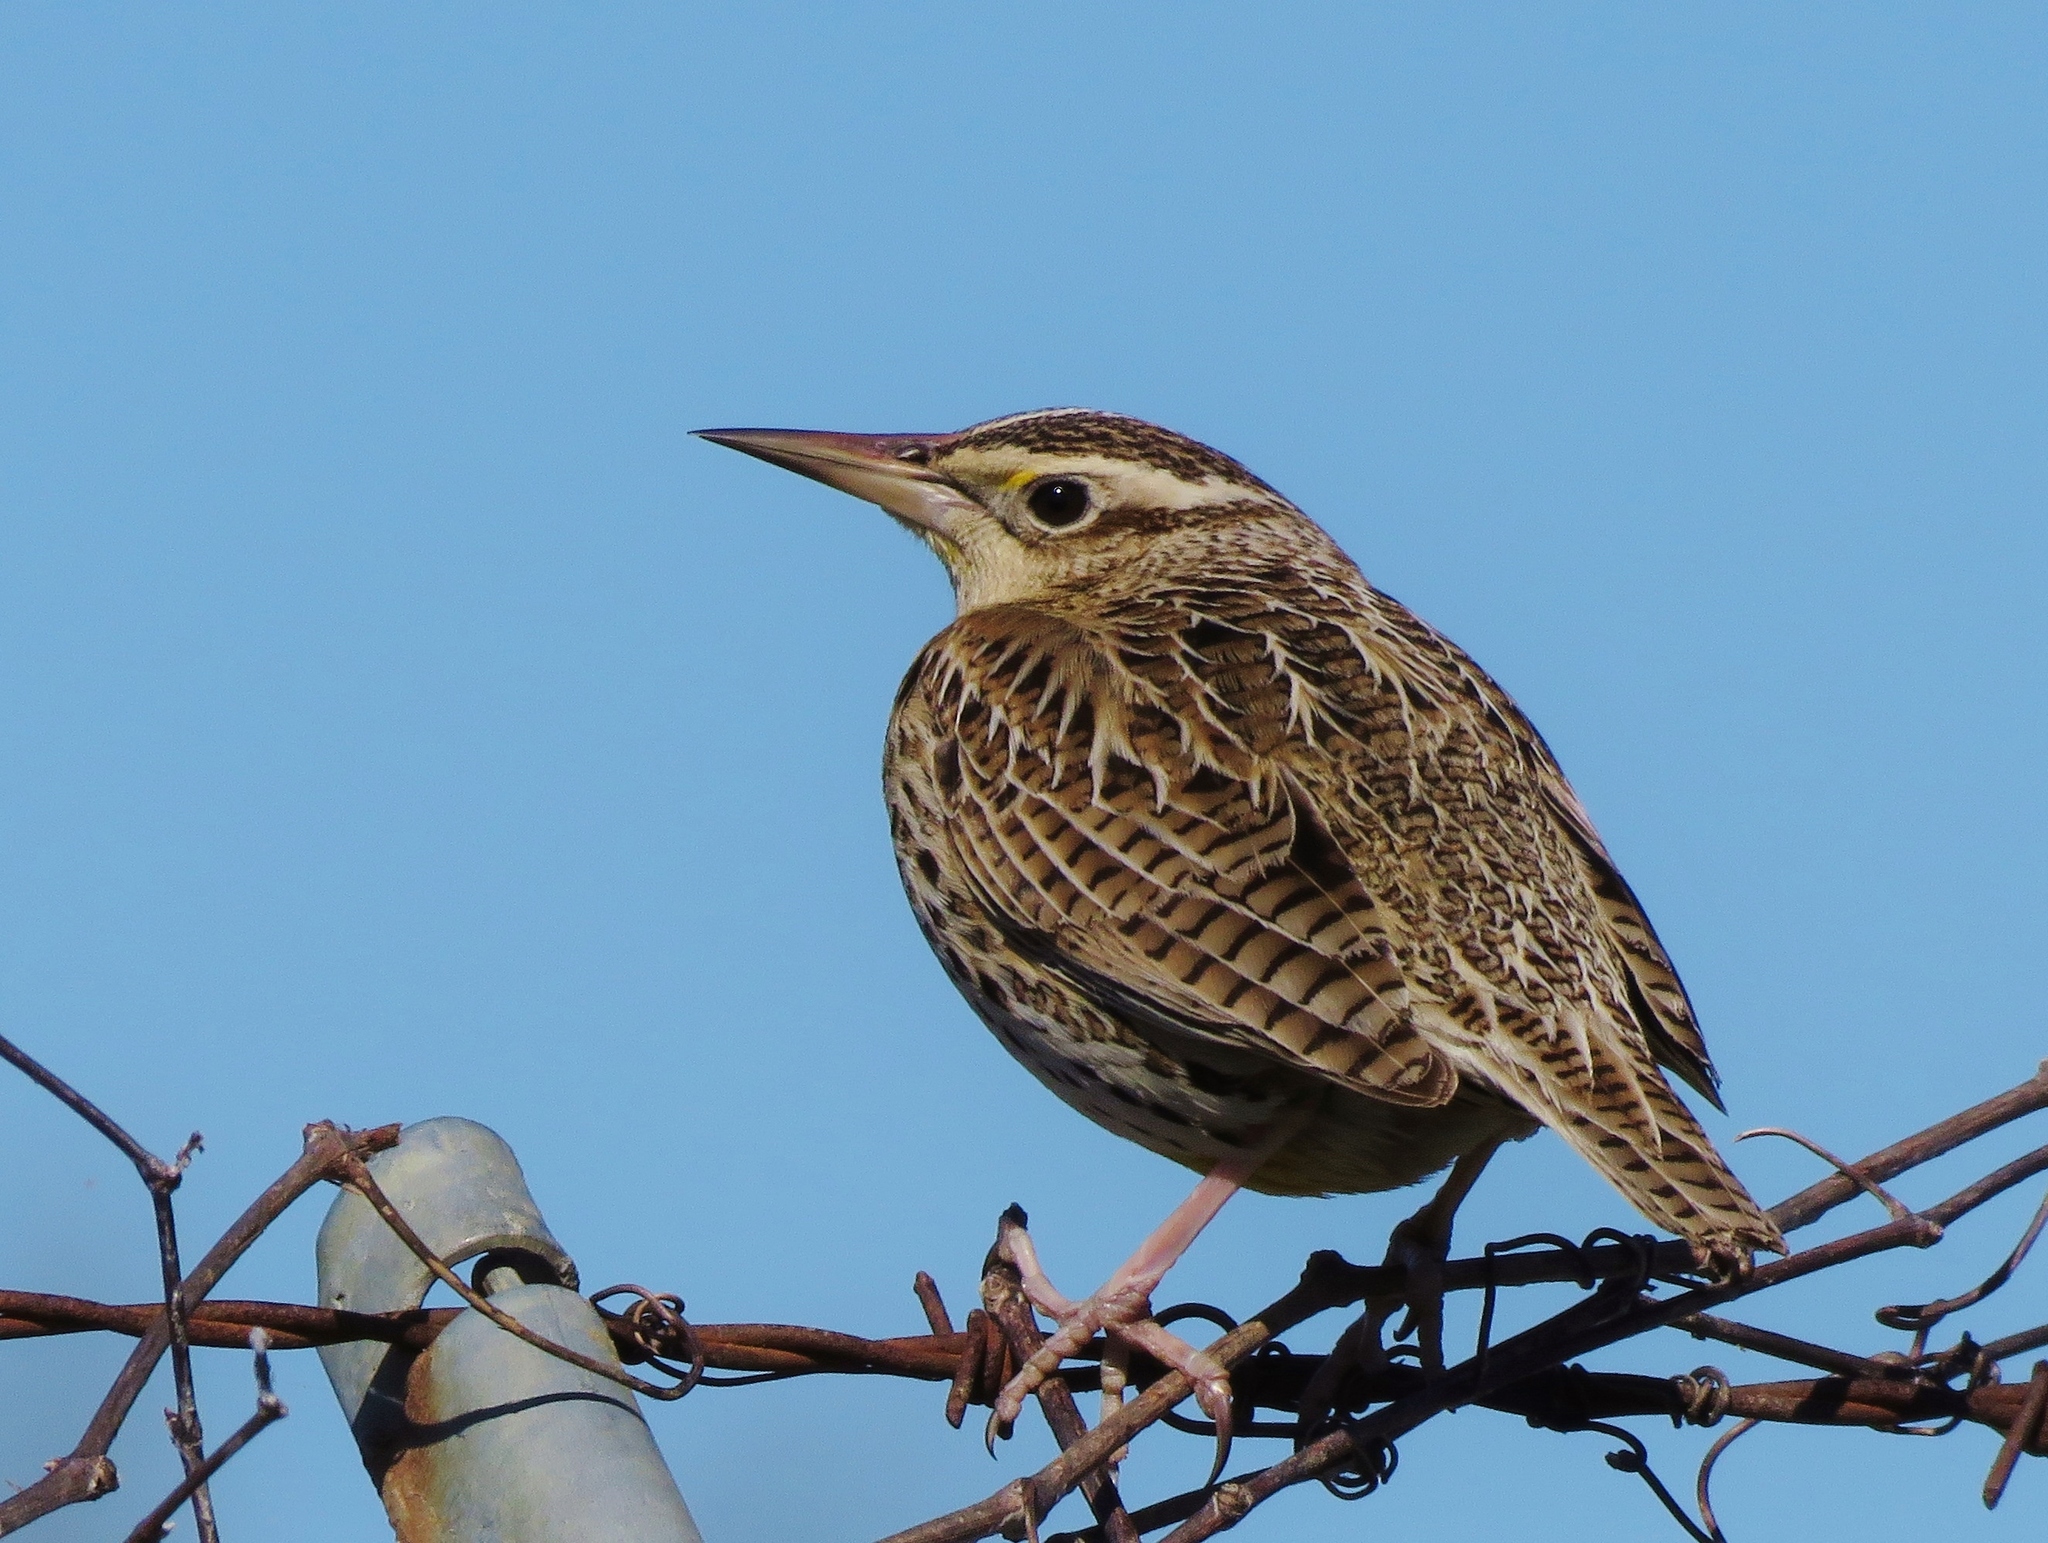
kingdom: Animalia
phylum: Chordata
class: Aves
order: Passeriformes
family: Icteridae
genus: Sturnella
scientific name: Sturnella neglecta
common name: Western meadowlark
